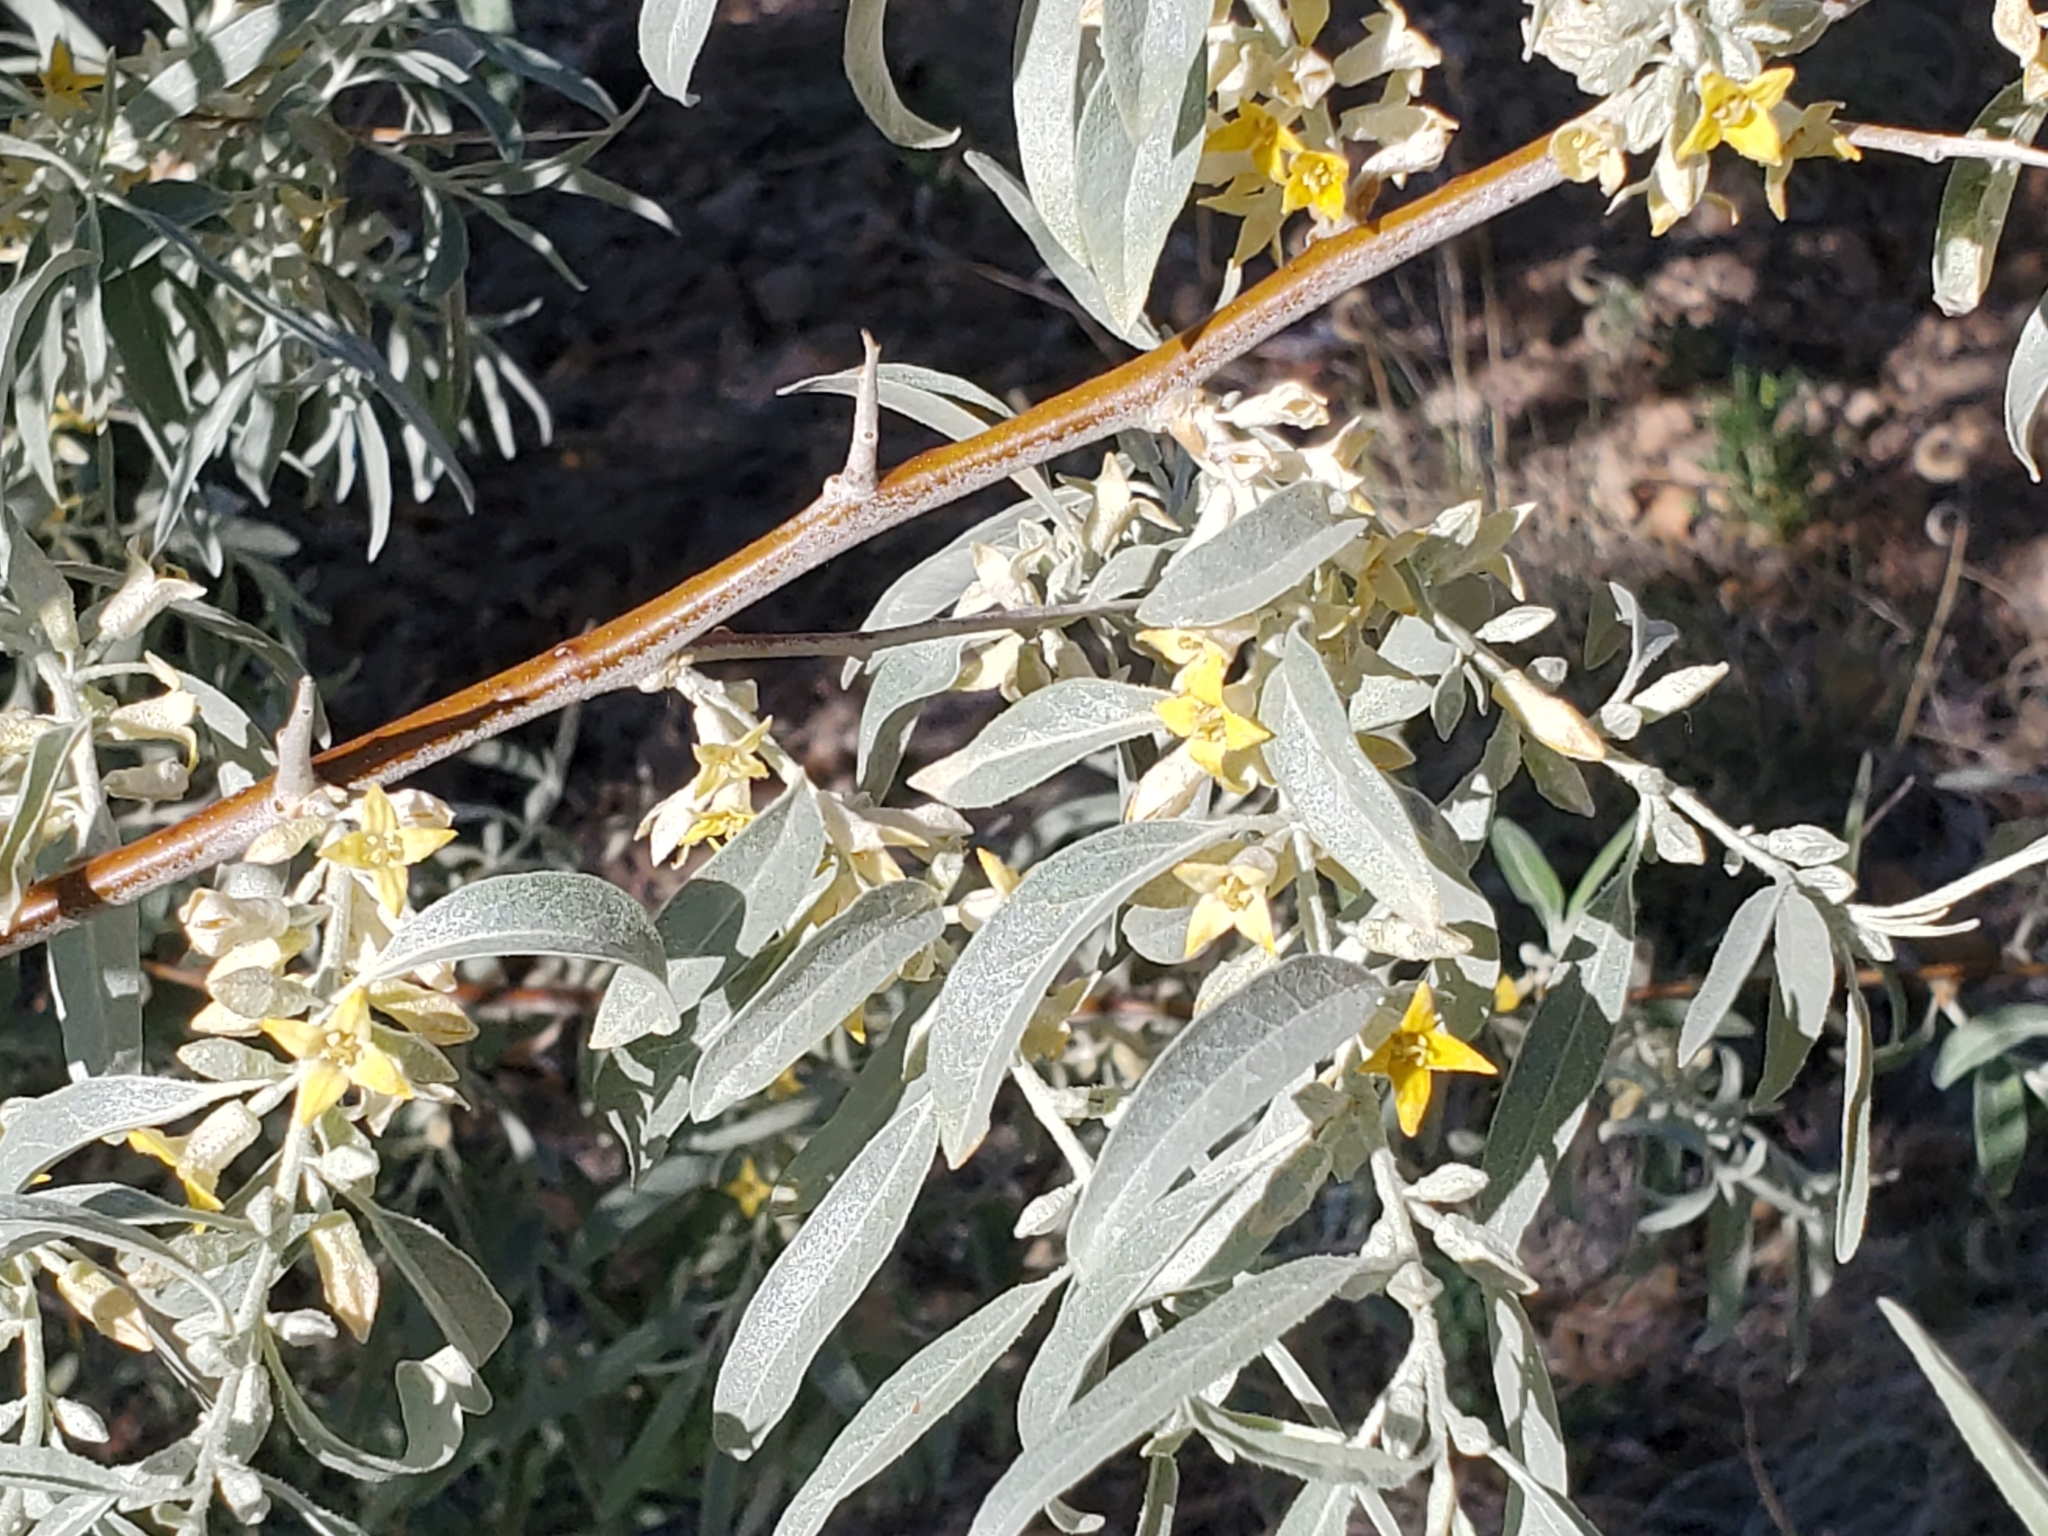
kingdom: Plantae
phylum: Tracheophyta
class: Magnoliopsida
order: Rosales
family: Elaeagnaceae
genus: Elaeagnus
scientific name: Elaeagnus angustifolia
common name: Russian olive
